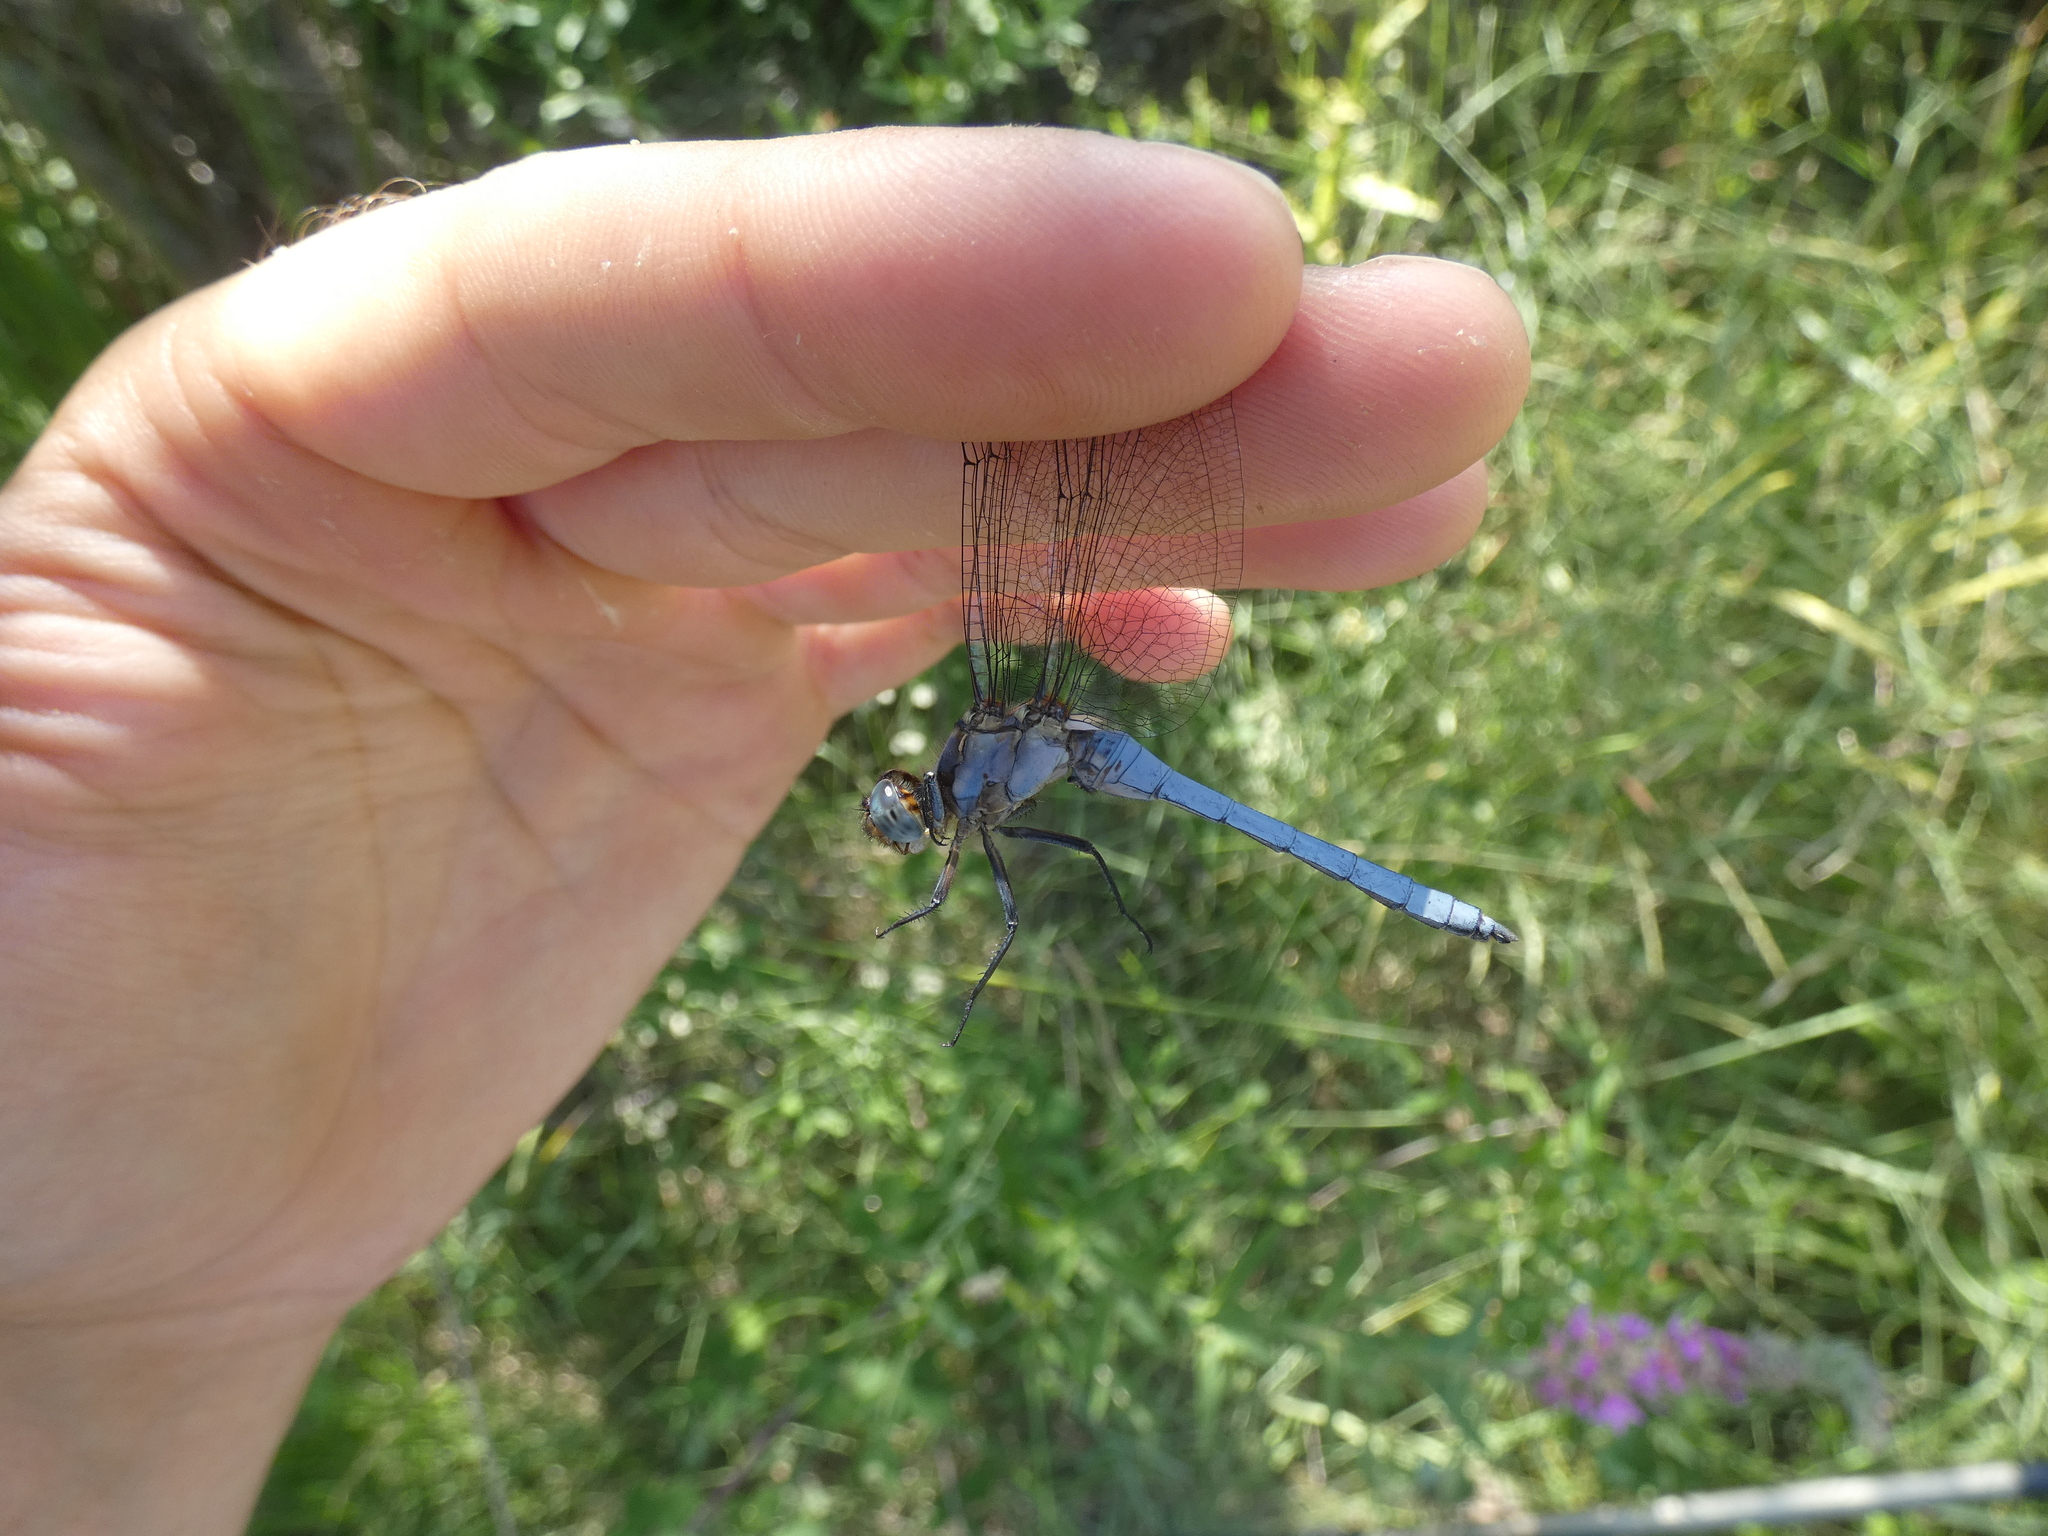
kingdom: Animalia
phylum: Arthropoda
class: Insecta
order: Odonata
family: Libellulidae
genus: Orthetrum
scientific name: Orthetrum coerulescens
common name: Keeled skimmer
